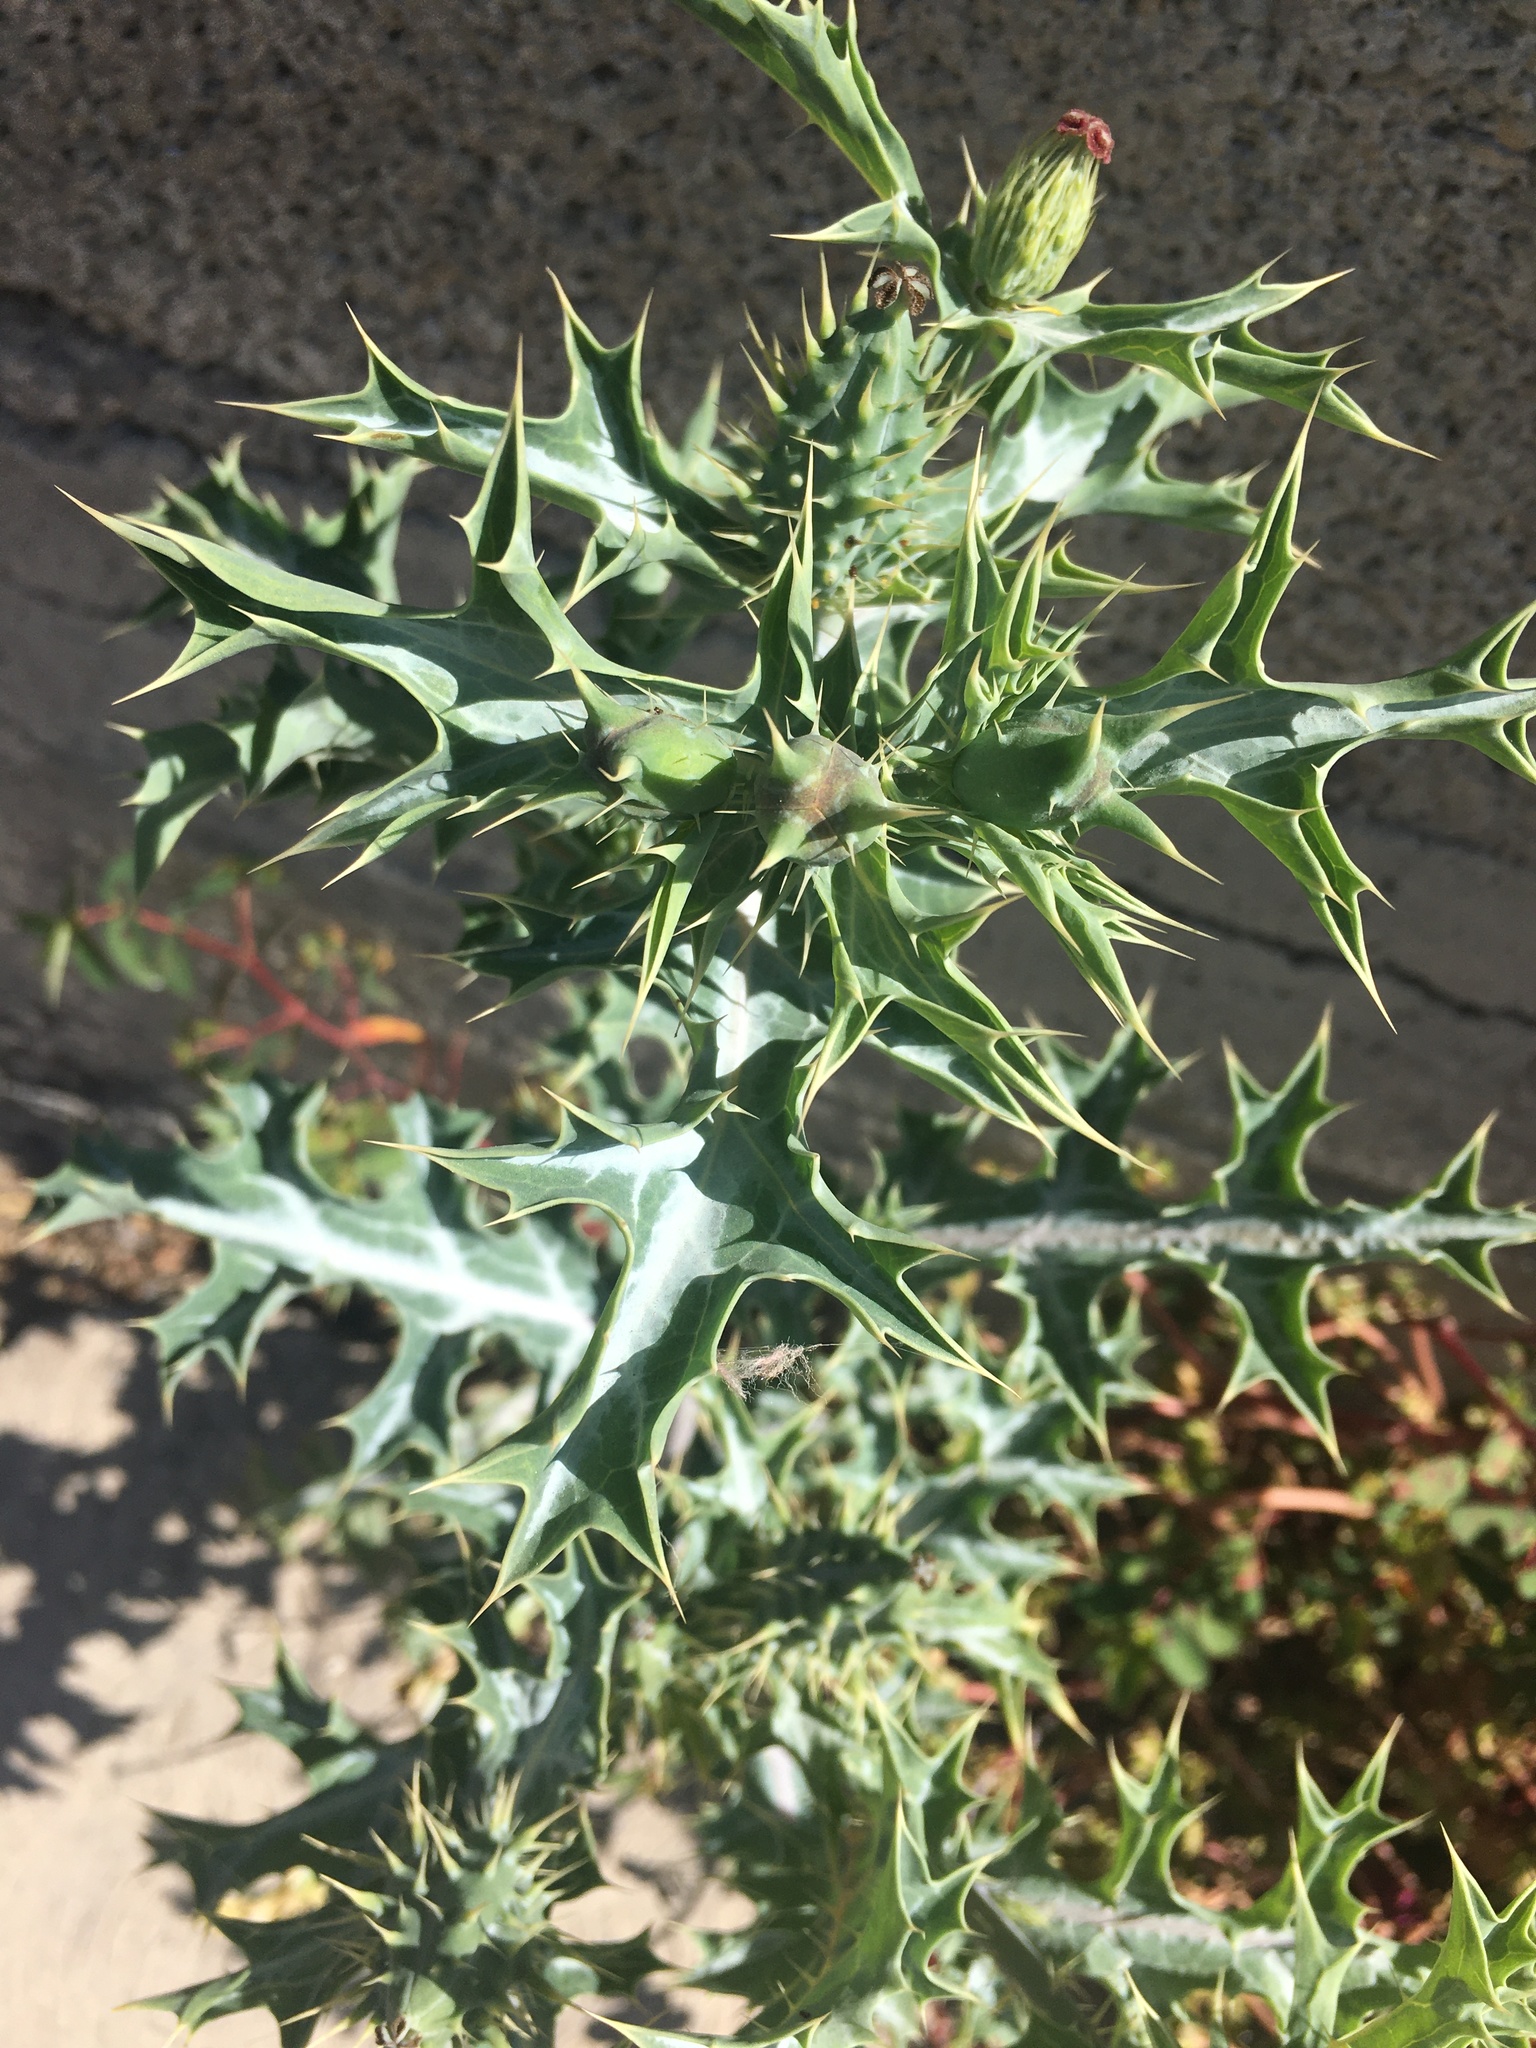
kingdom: Plantae
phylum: Tracheophyta
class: Magnoliopsida
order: Ranunculales
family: Papaveraceae
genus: Argemone
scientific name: Argemone ochroleuca
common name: White-flower mexican-poppy
